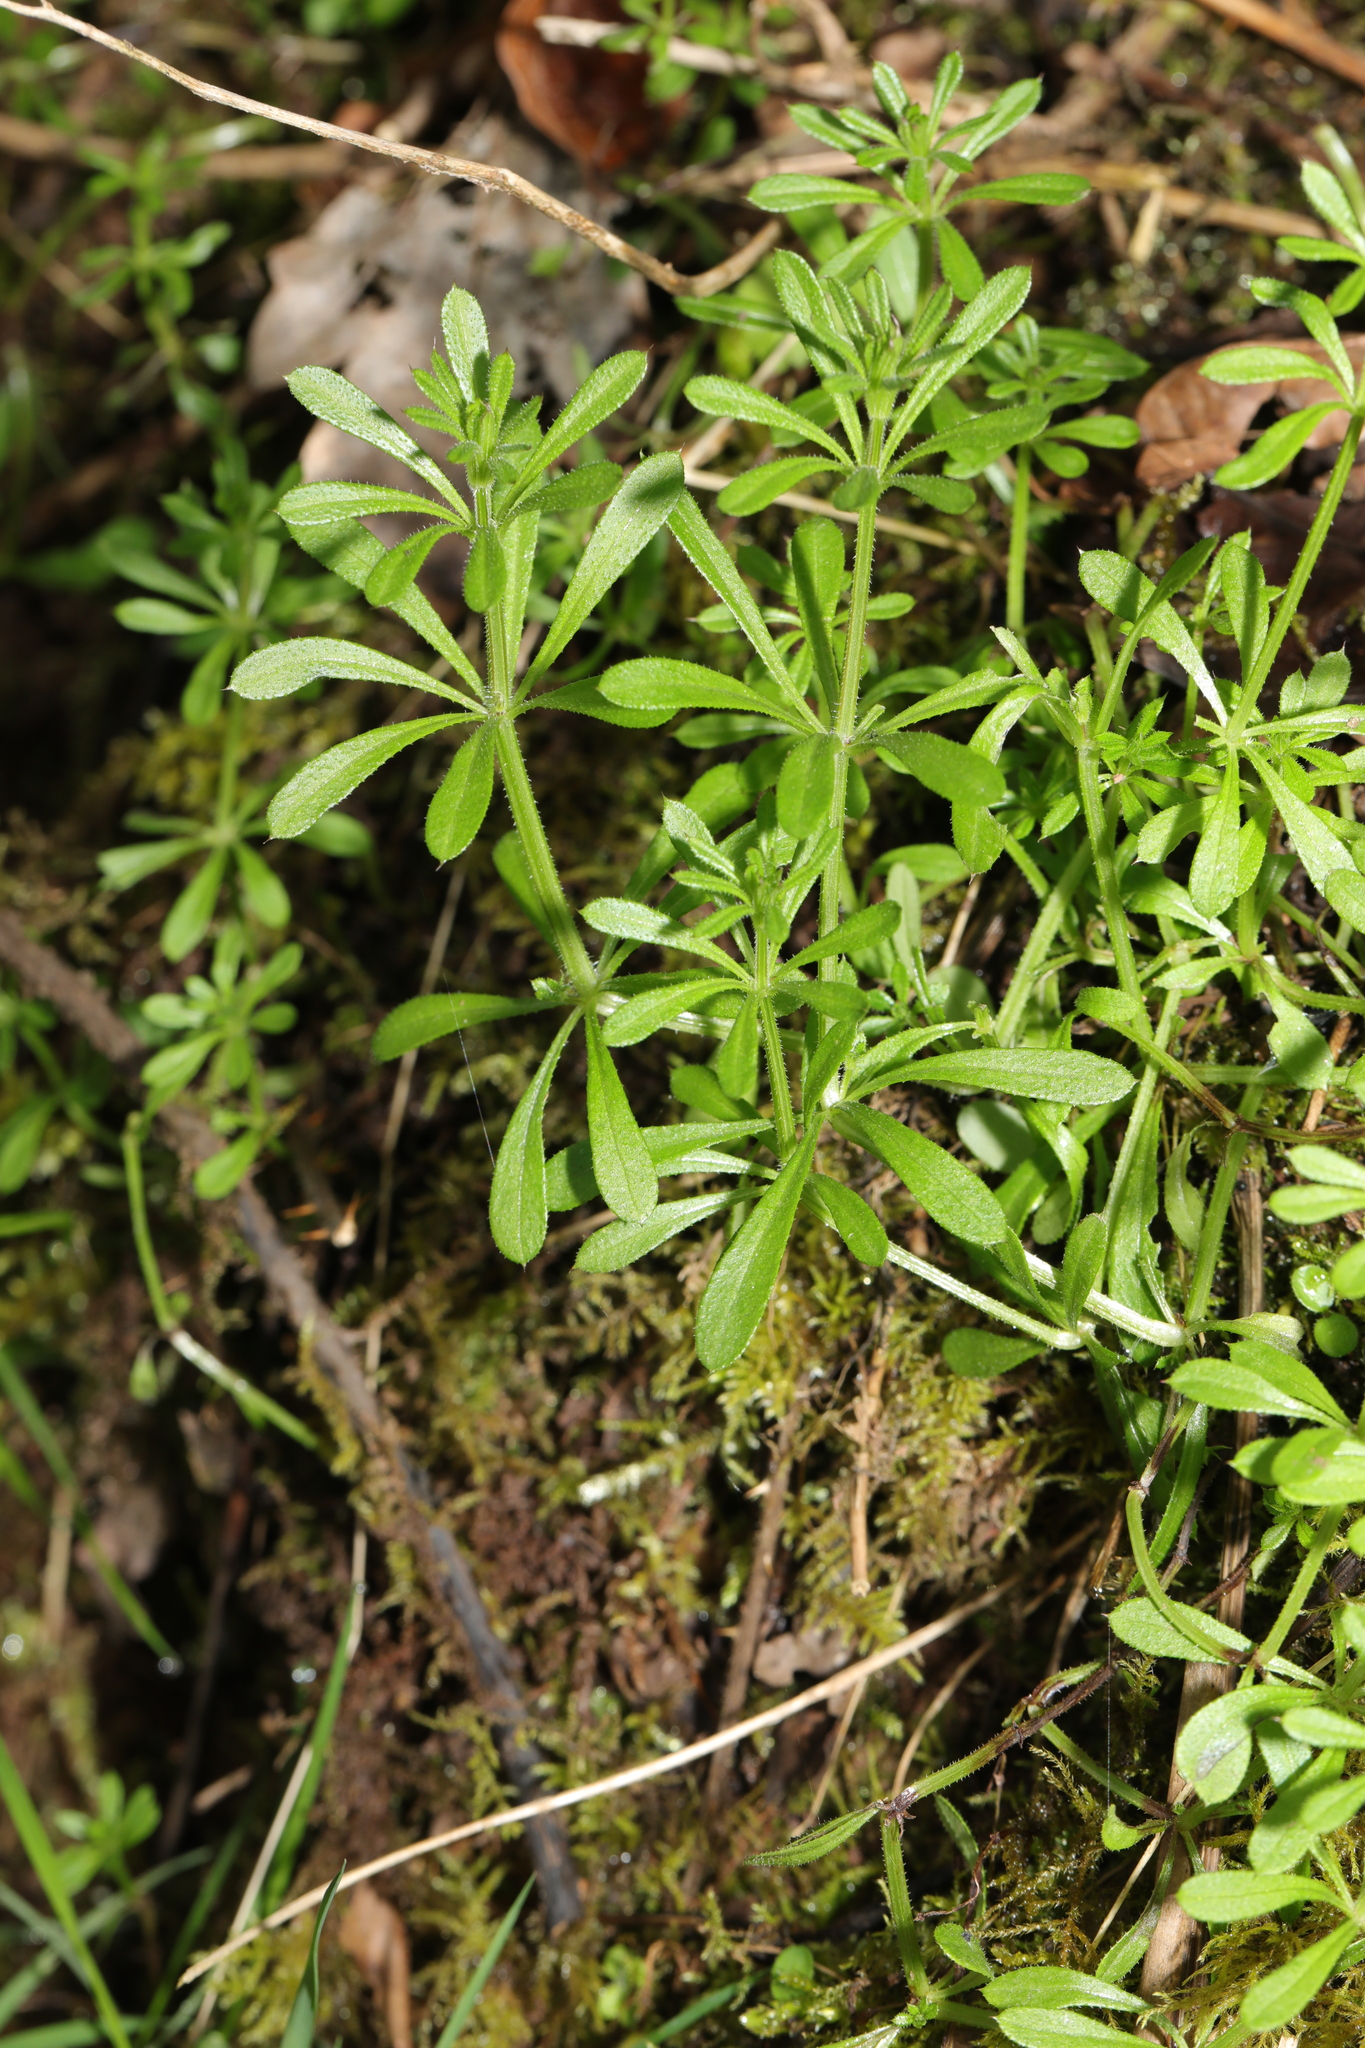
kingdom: Plantae
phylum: Tracheophyta
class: Magnoliopsida
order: Gentianales
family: Rubiaceae
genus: Galium
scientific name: Galium aparine
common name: Cleavers
